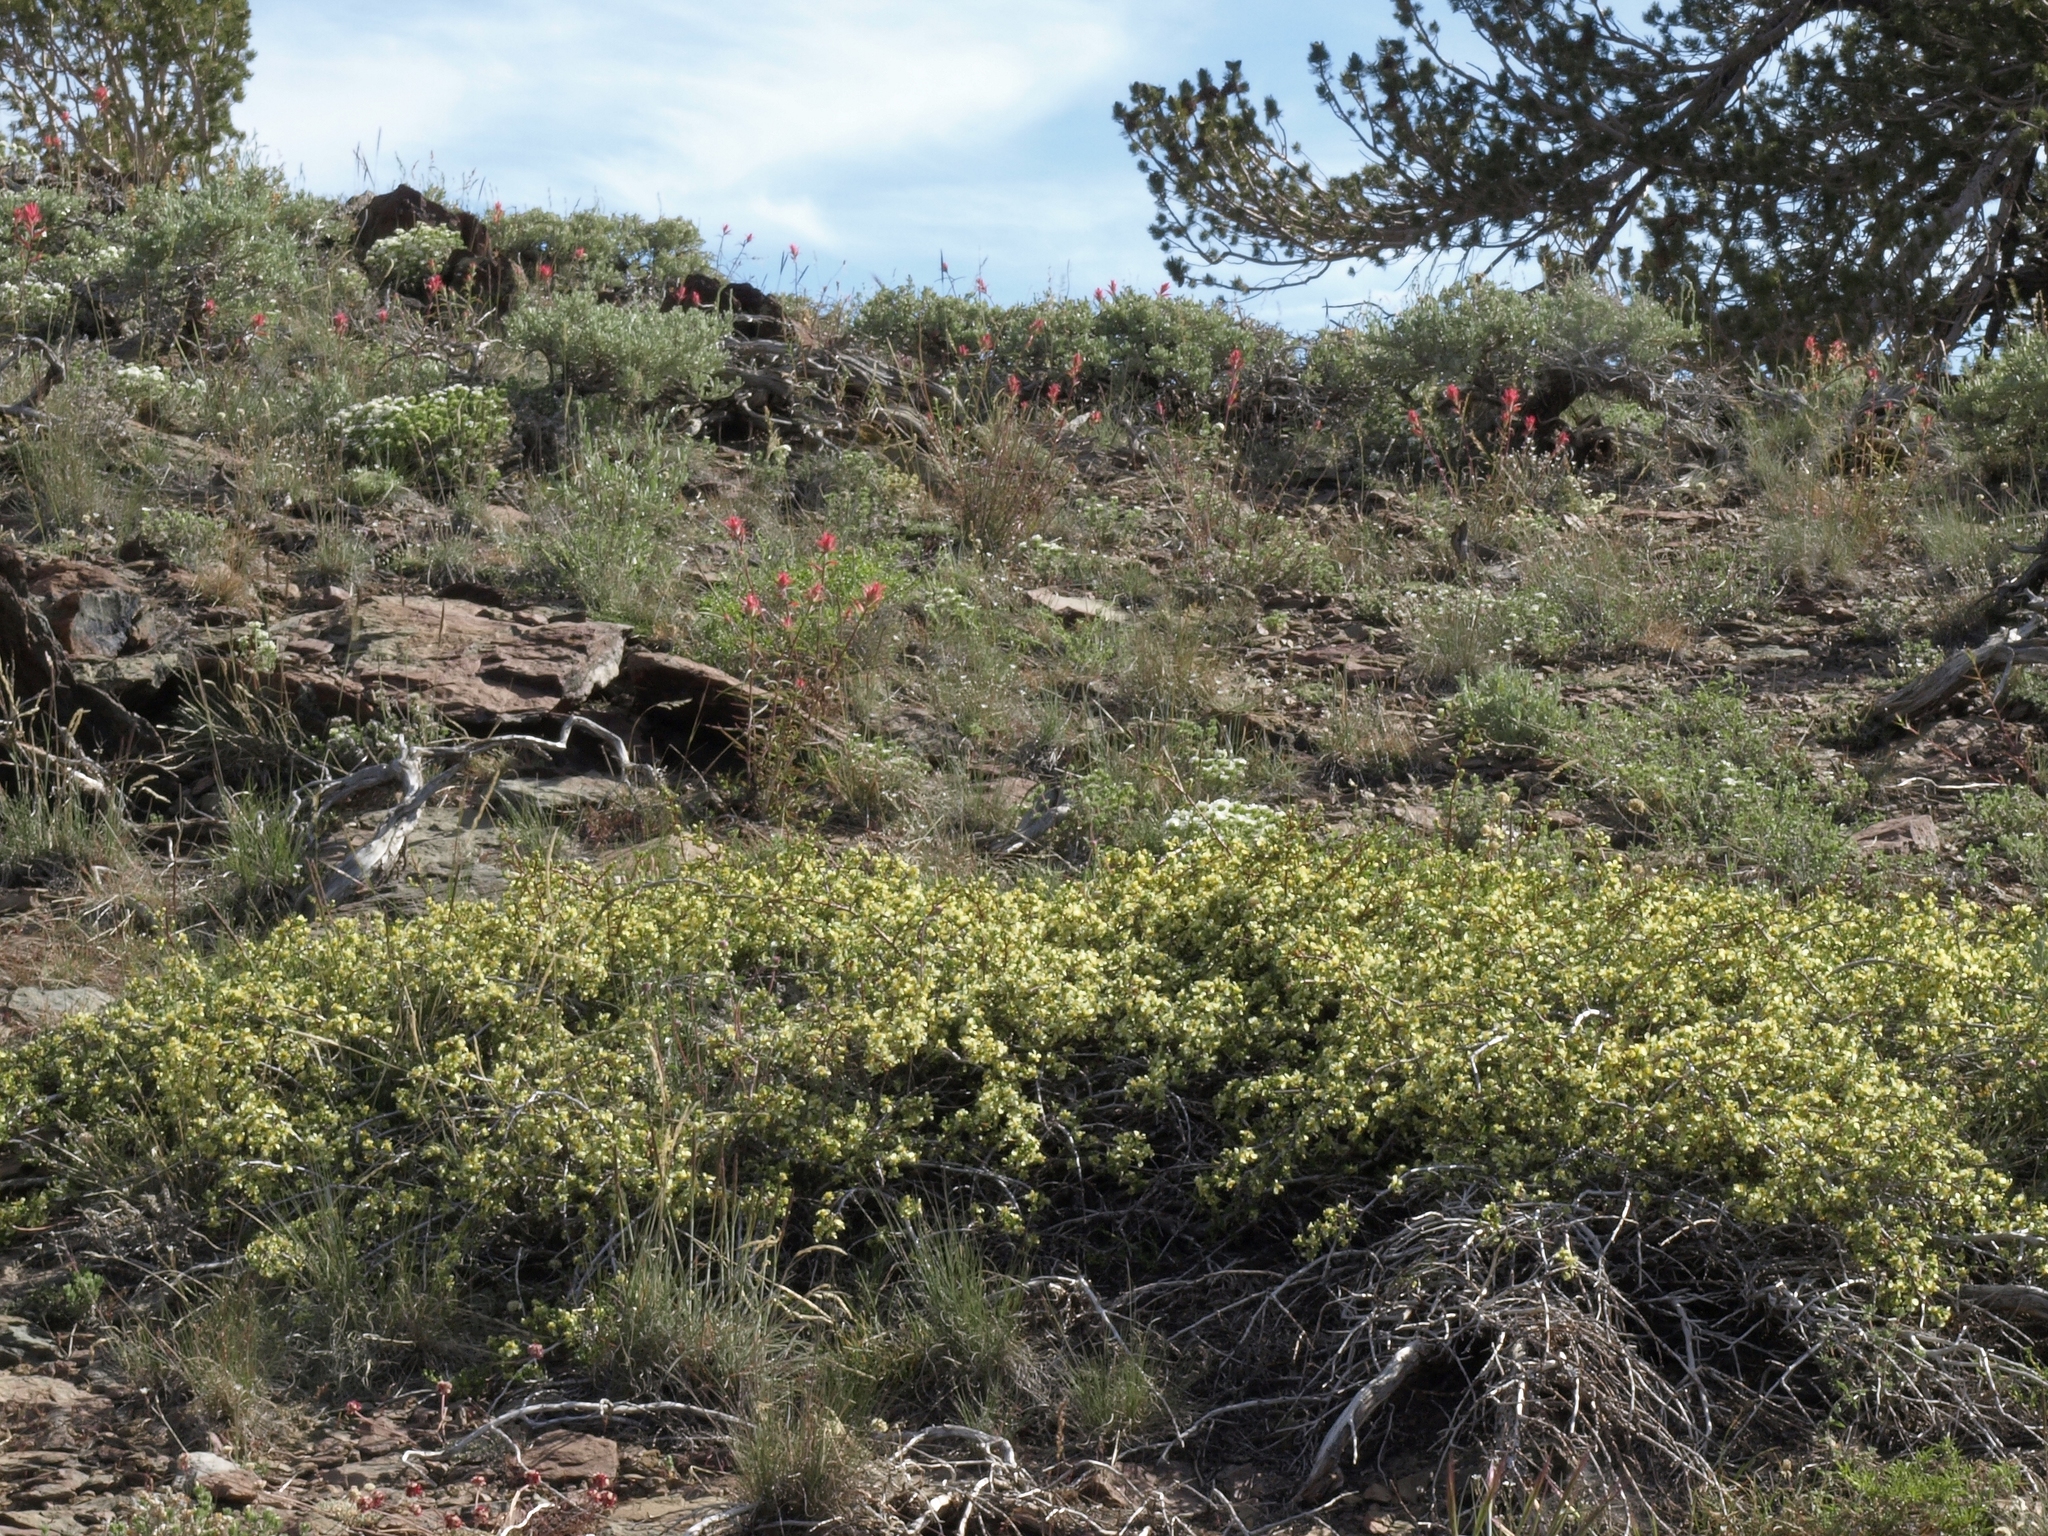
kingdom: Plantae
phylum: Tracheophyta
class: Magnoliopsida
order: Rosales
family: Rosaceae
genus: Purshia
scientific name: Purshia tridentata
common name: Antelope bitterbrush
